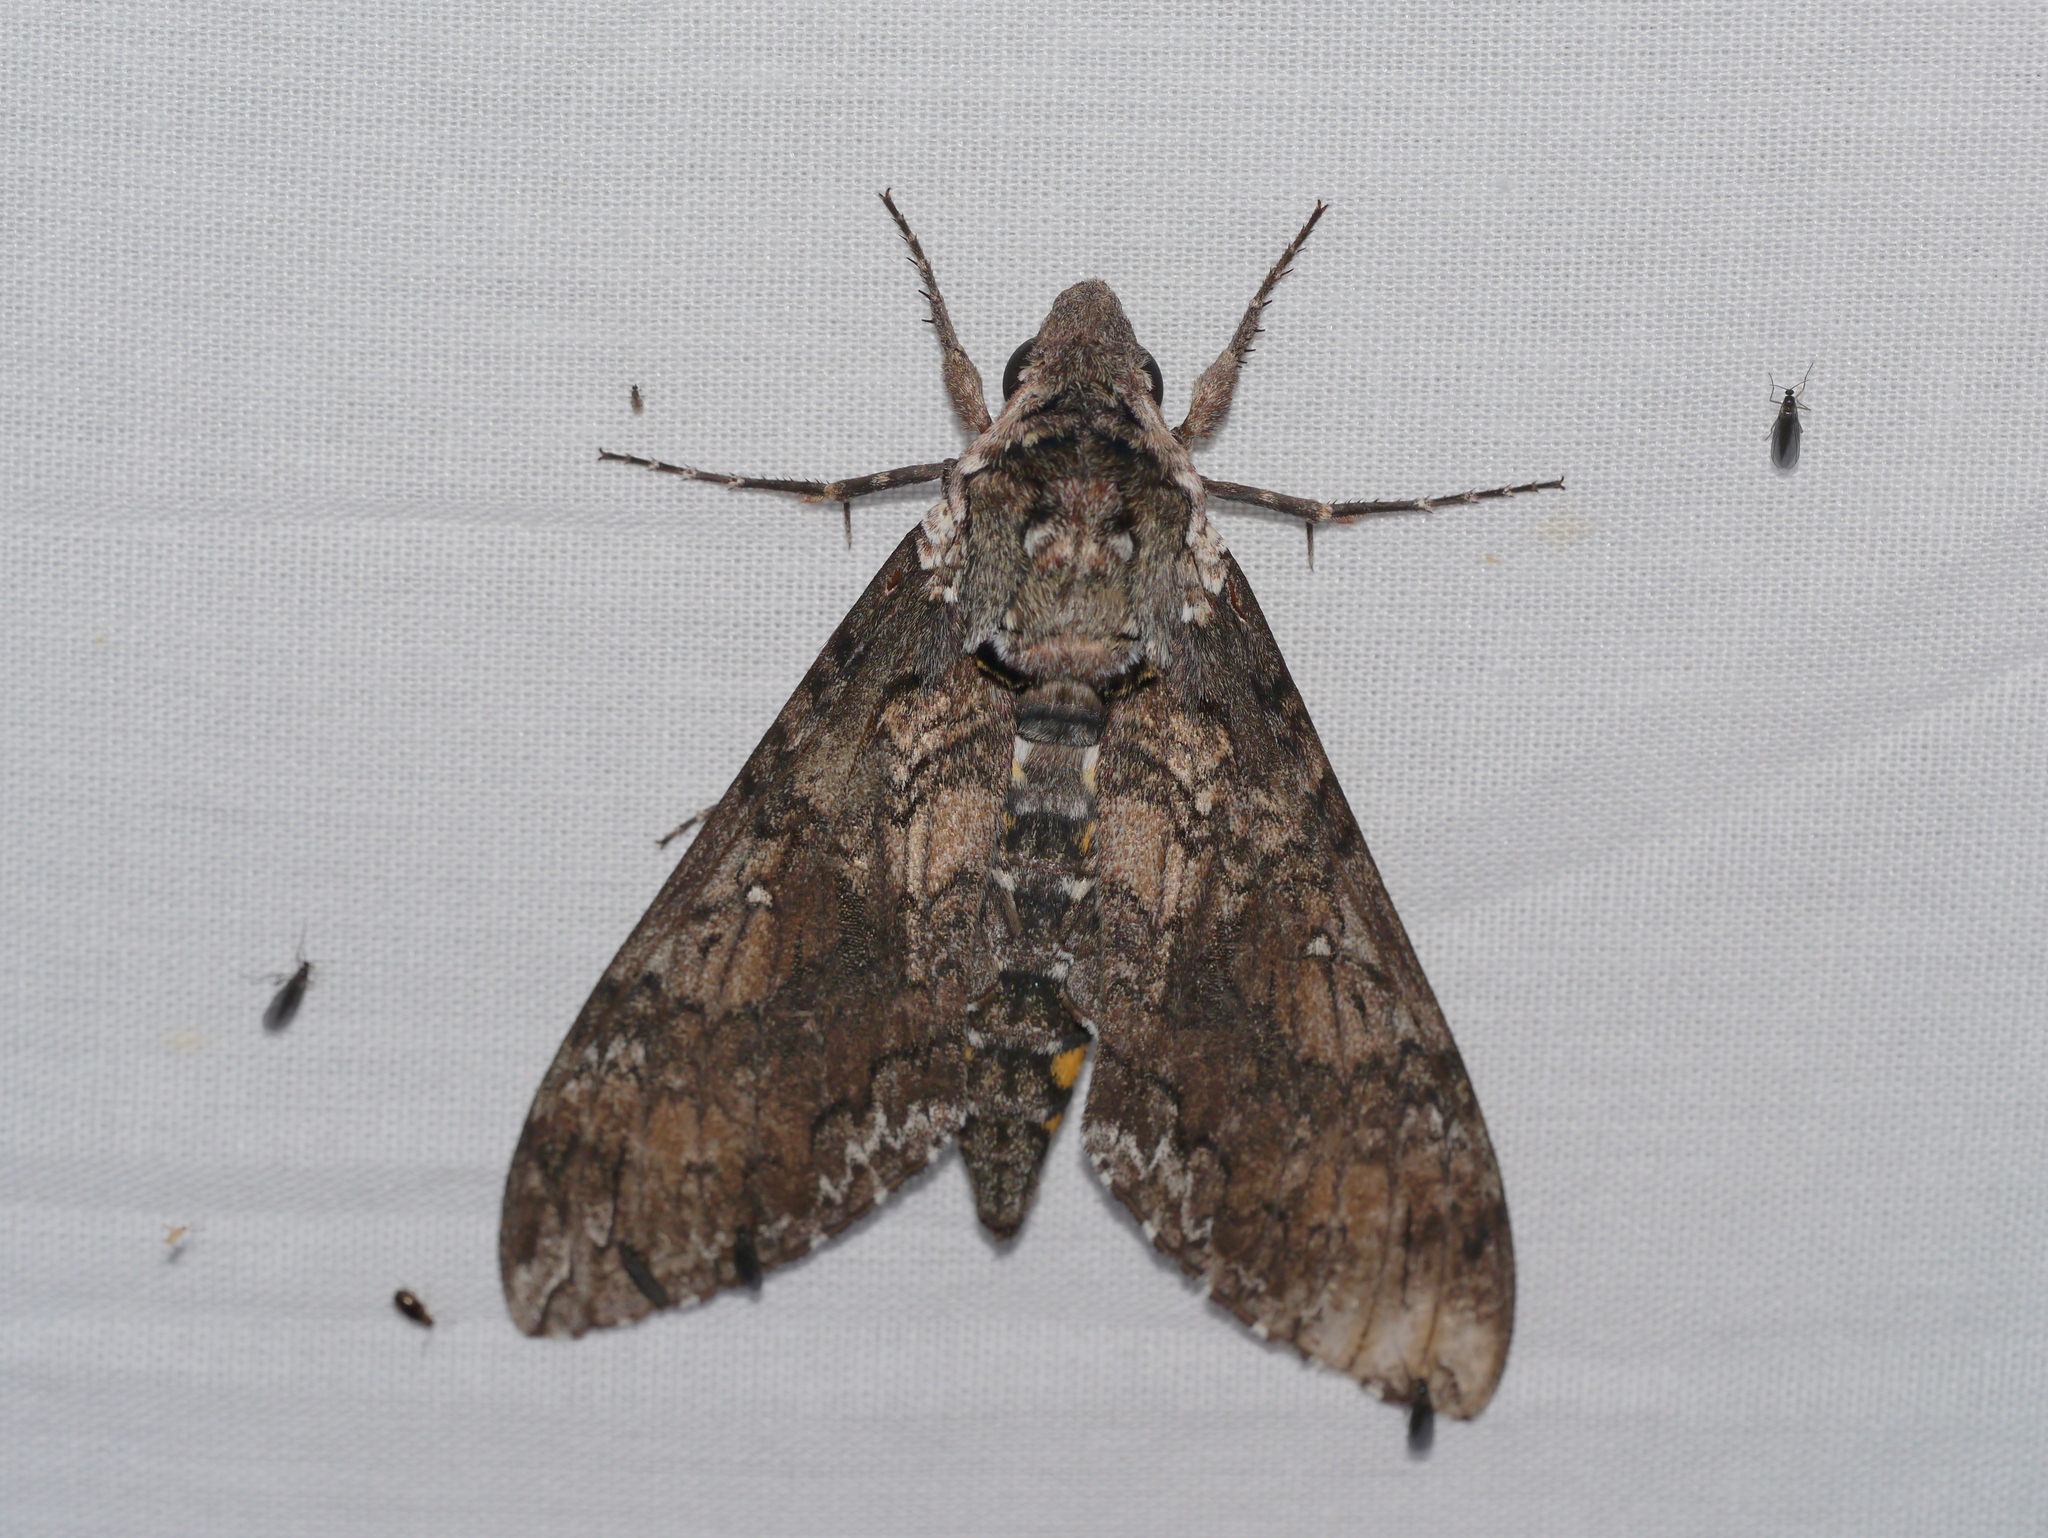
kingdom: Animalia
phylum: Arthropoda
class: Insecta
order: Lepidoptera
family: Sphingidae
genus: Manduca
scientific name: Manduca sexta
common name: Carolina sphinx
